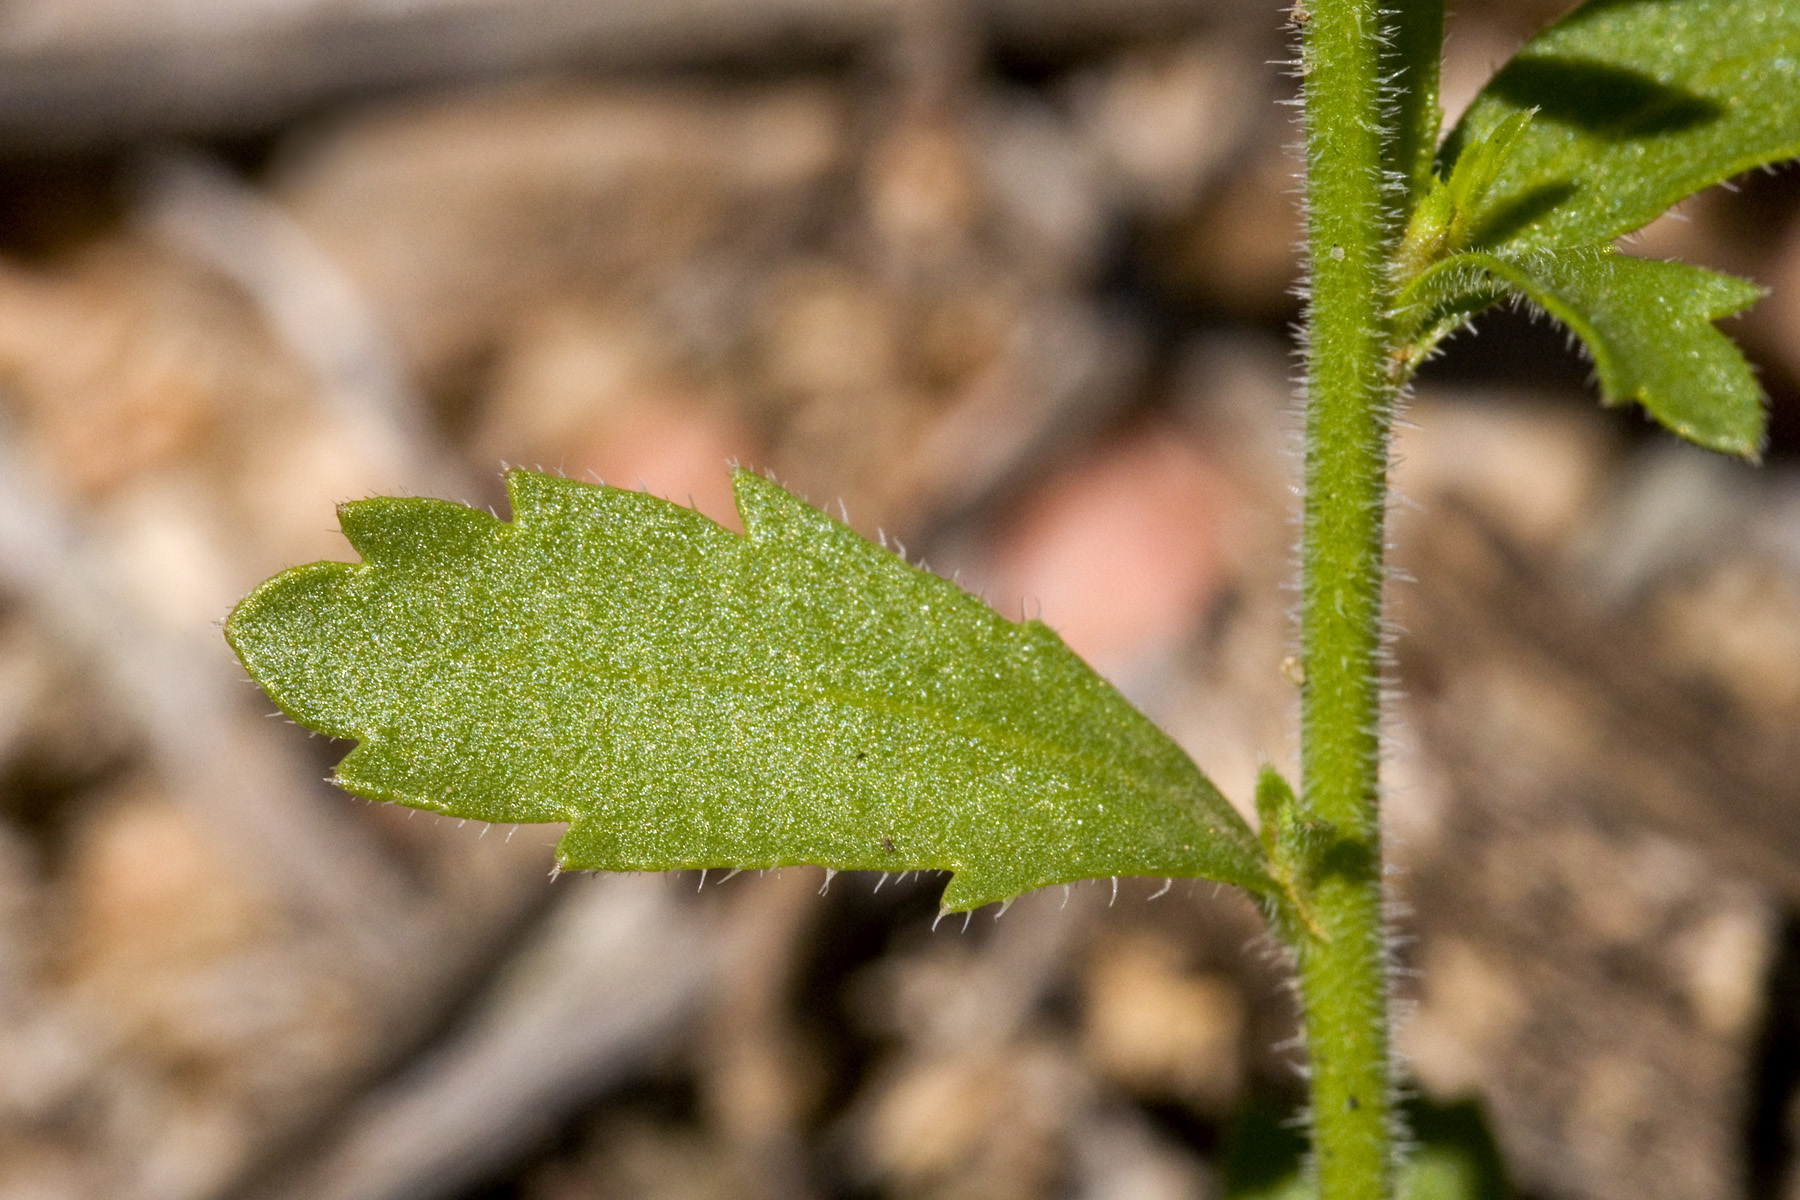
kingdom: Plantae
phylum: Tracheophyta
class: Magnoliopsida
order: Brassicales
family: Brassicaceae
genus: Lepidium
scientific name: Lepidium lasiocarpum
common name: Hairy-pod pepperwort
